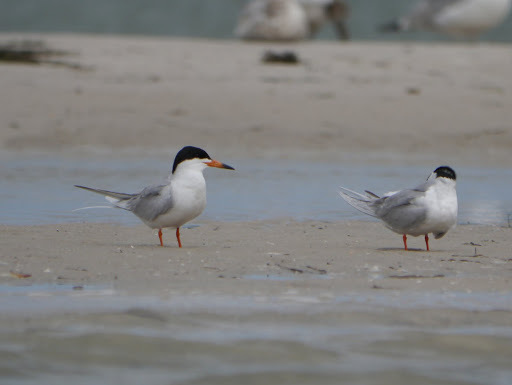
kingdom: Animalia
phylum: Chordata
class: Aves
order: Charadriiformes
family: Laridae
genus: Sterna
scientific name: Sterna forsteri
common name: Forster's tern
